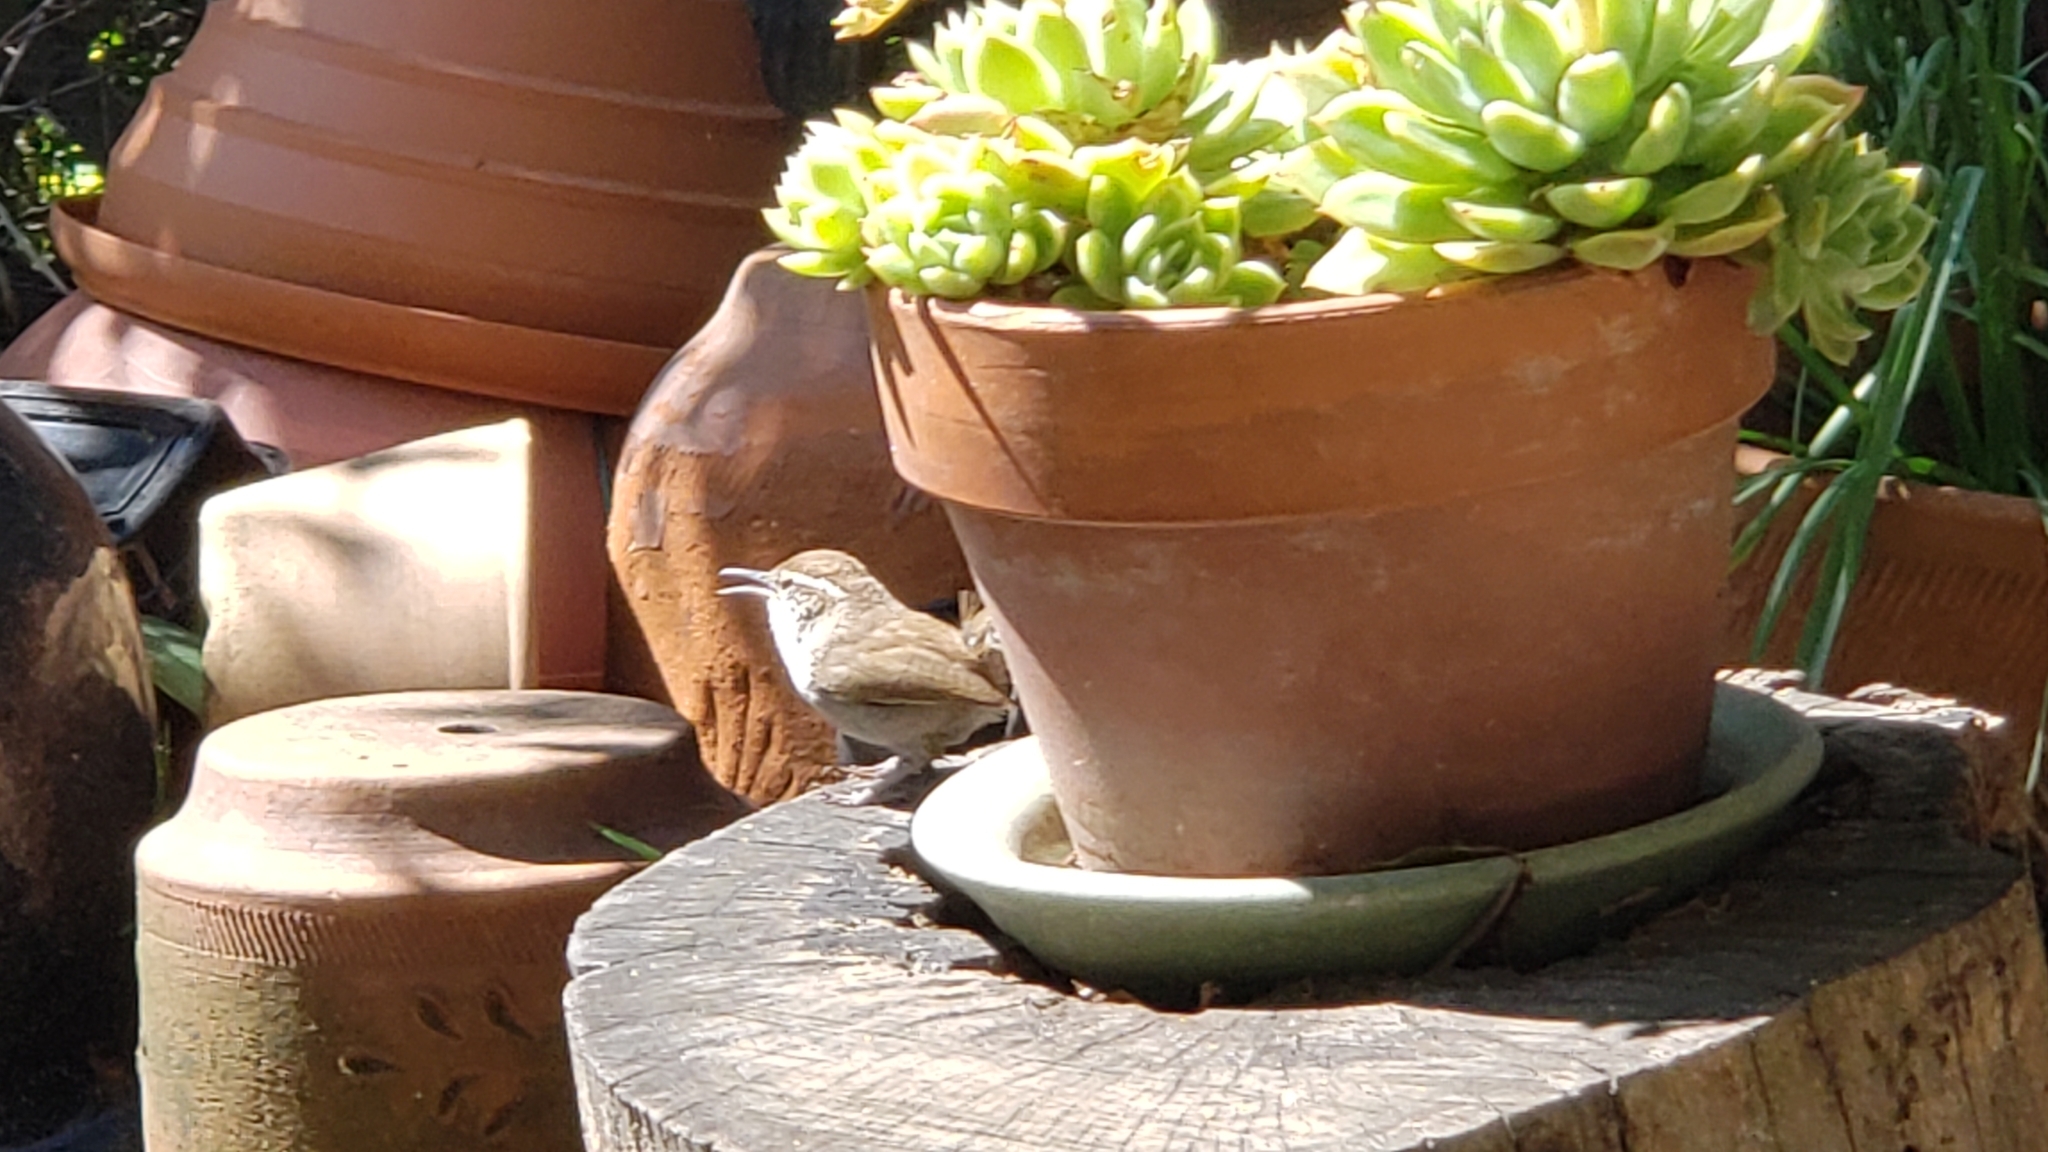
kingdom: Animalia
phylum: Chordata
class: Aves
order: Passeriformes
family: Troglodytidae
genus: Thryomanes
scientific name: Thryomanes bewickii
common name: Bewick's wren
